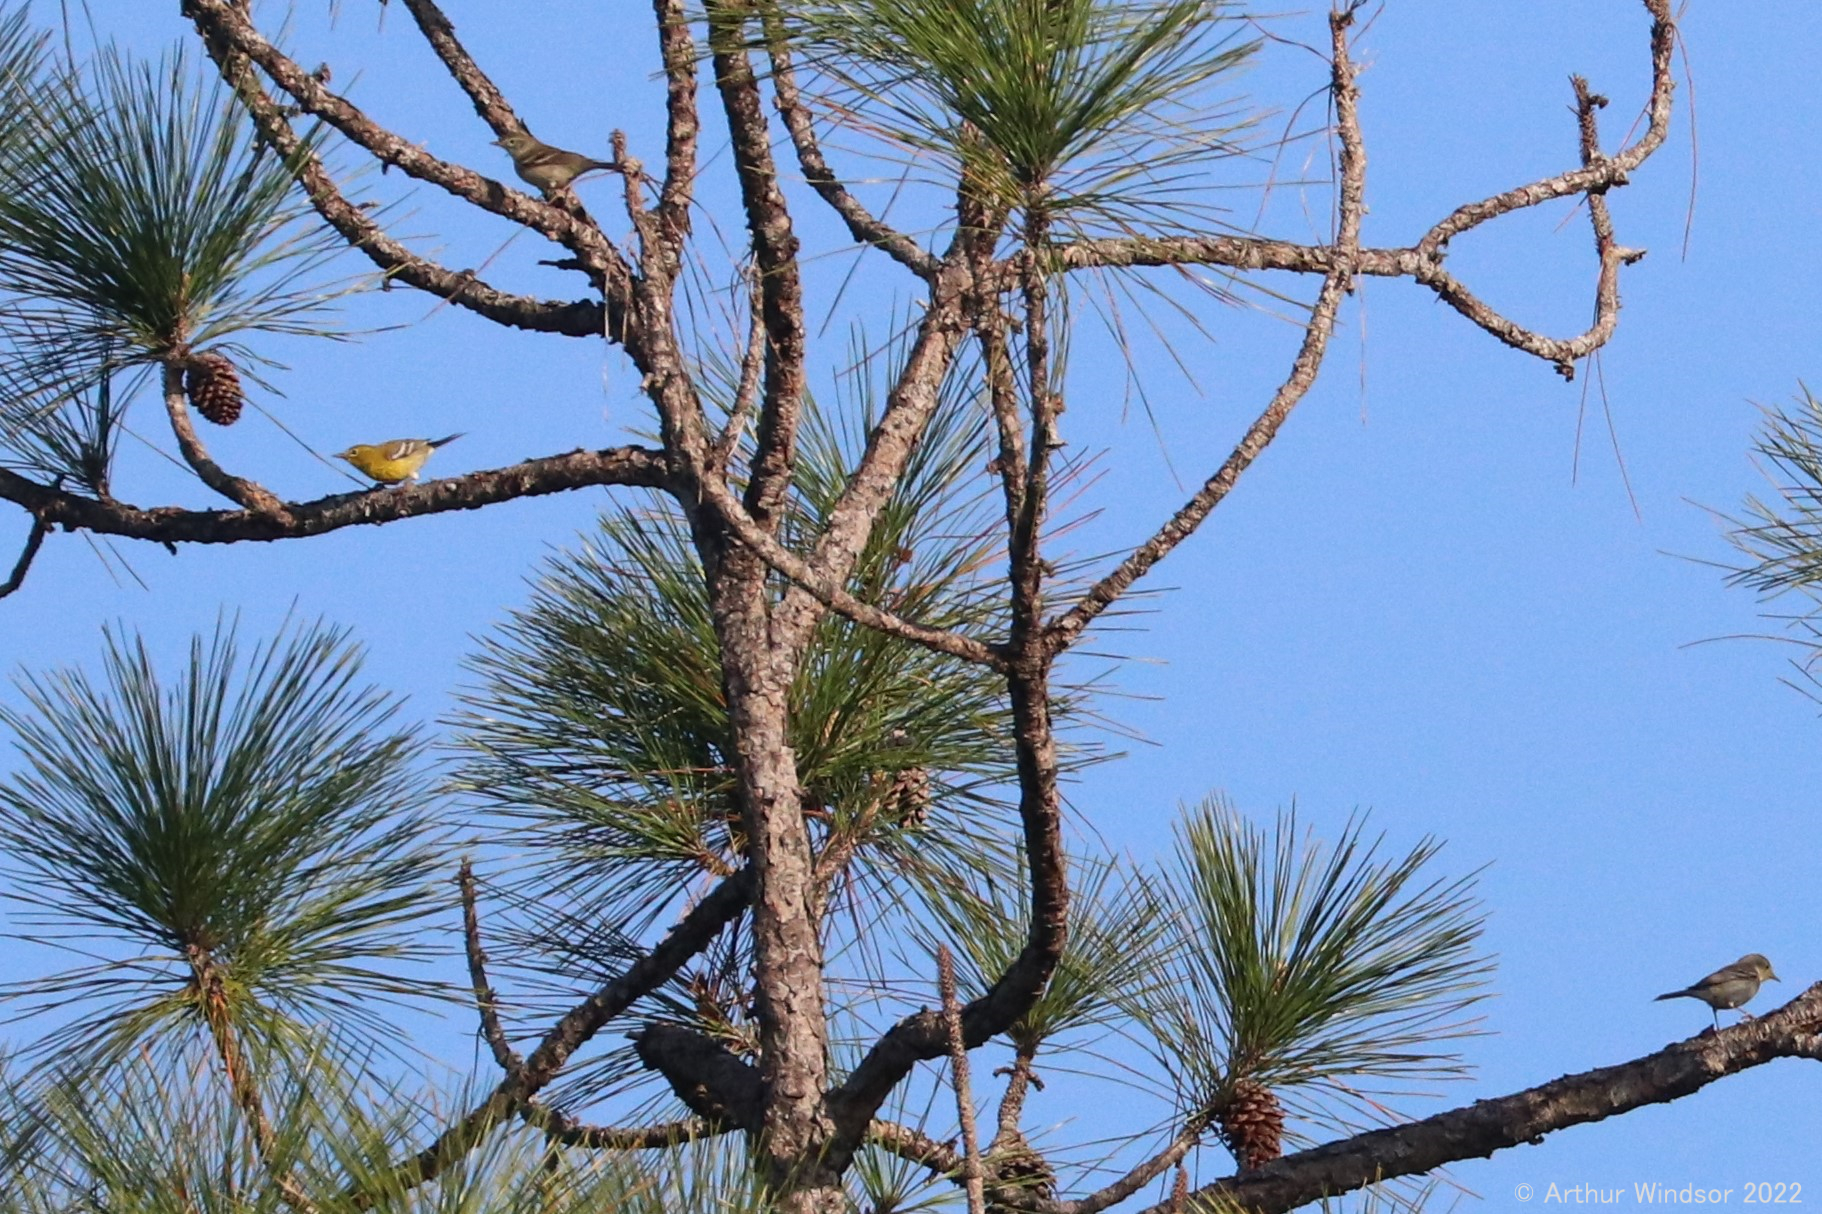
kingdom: Animalia
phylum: Chordata
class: Aves
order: Passeriformes
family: Parulidae
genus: Setophaga
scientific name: Setophaga pinus
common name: Pine warbler
